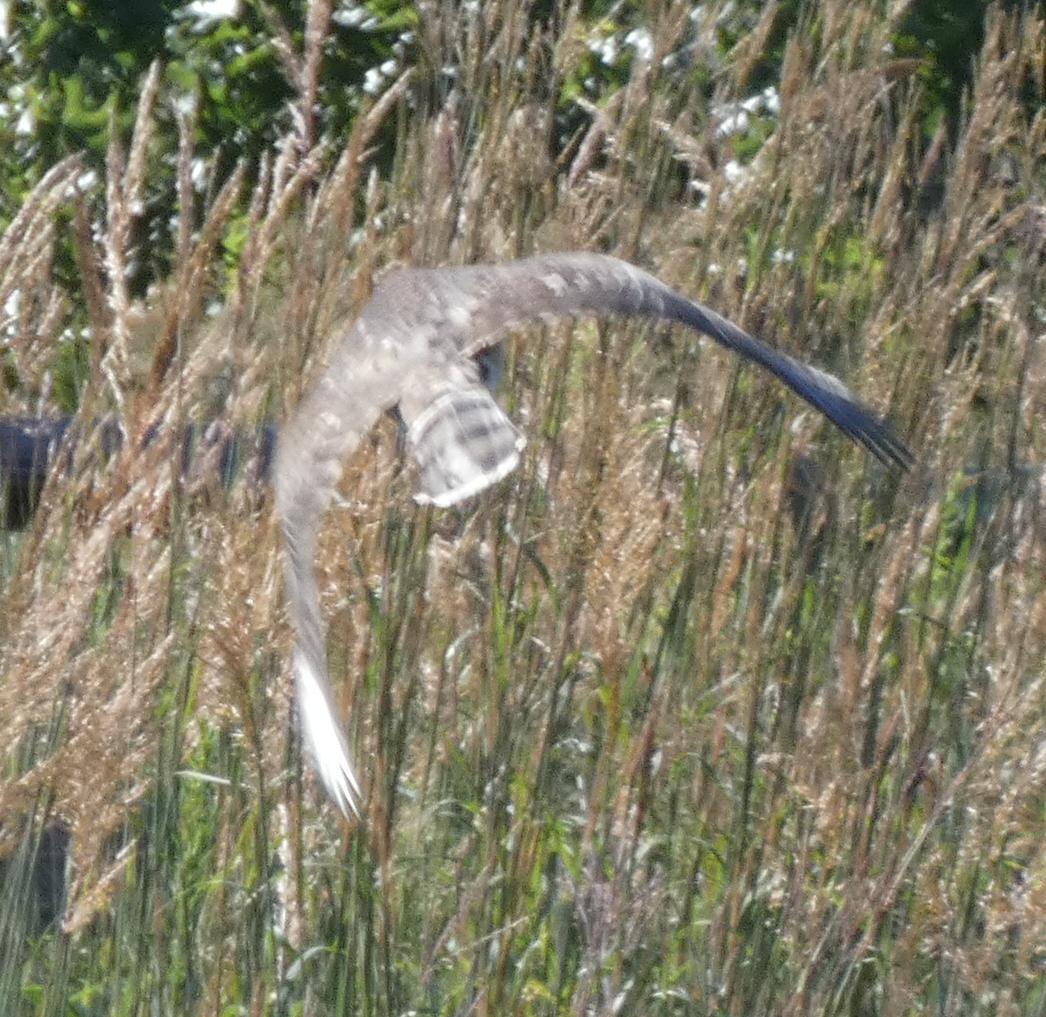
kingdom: Animalia
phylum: Chordata
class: Aves
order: Accipitriformes
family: Accipitridae
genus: Accipiter
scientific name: Accipiter cooperii
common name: Cooper's hawk
